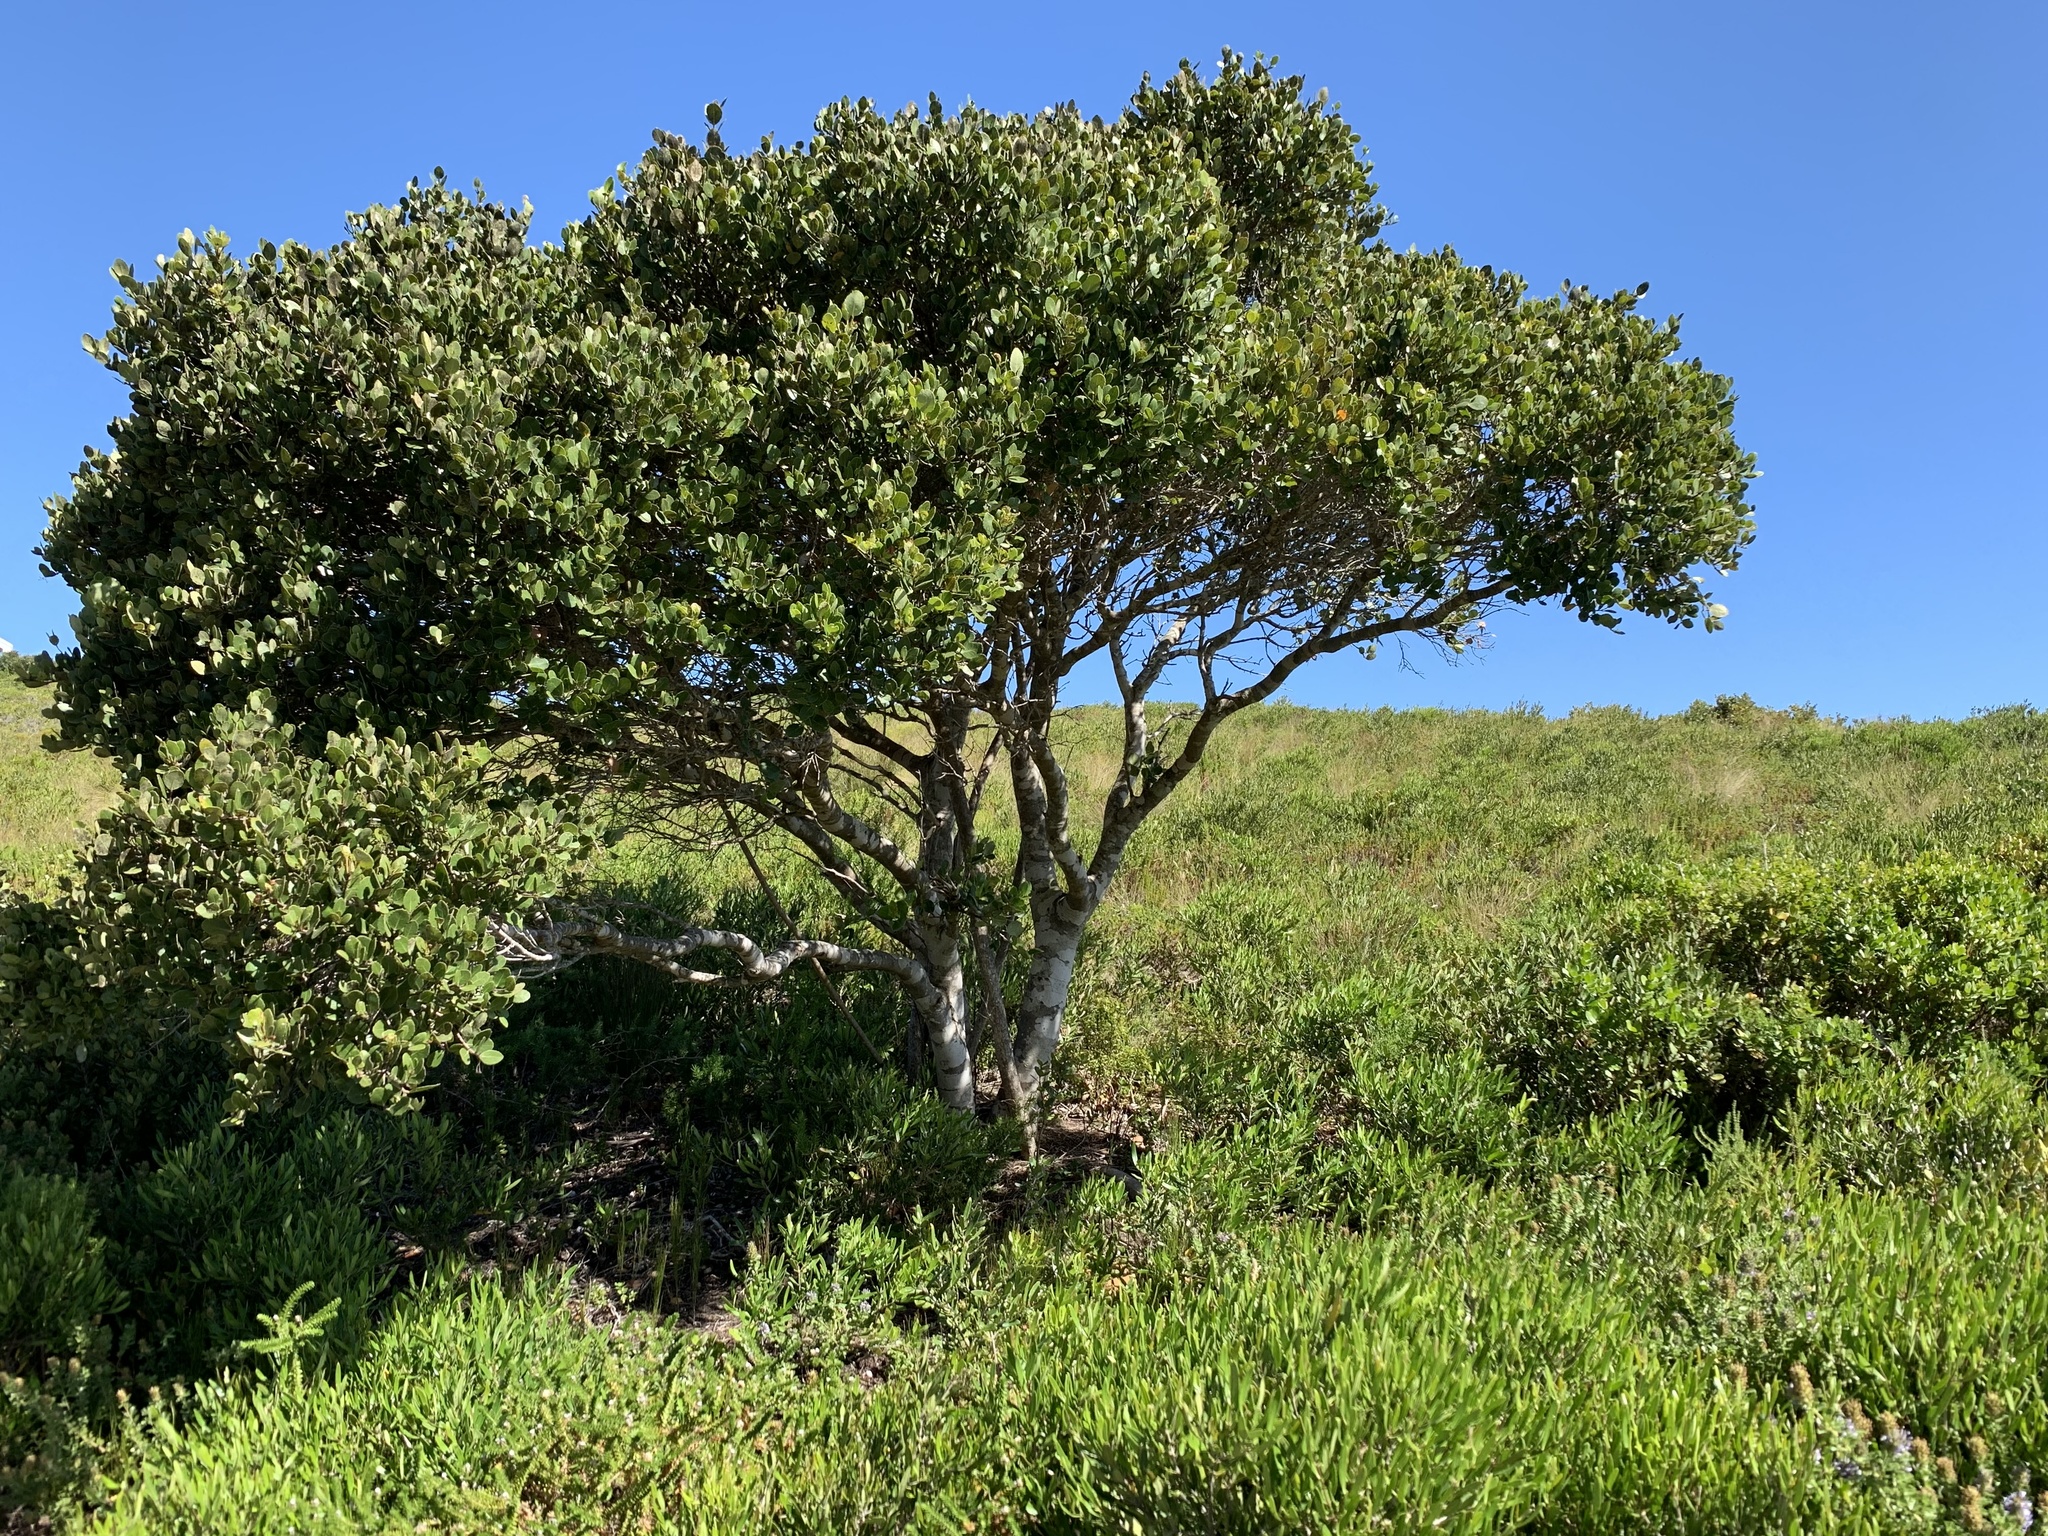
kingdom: Plantae
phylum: Tracheophyta
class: Magnoliopsida
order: Celastrales
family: Celastraceae
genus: Cassine
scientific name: Cassine peragua
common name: Cape saffron
